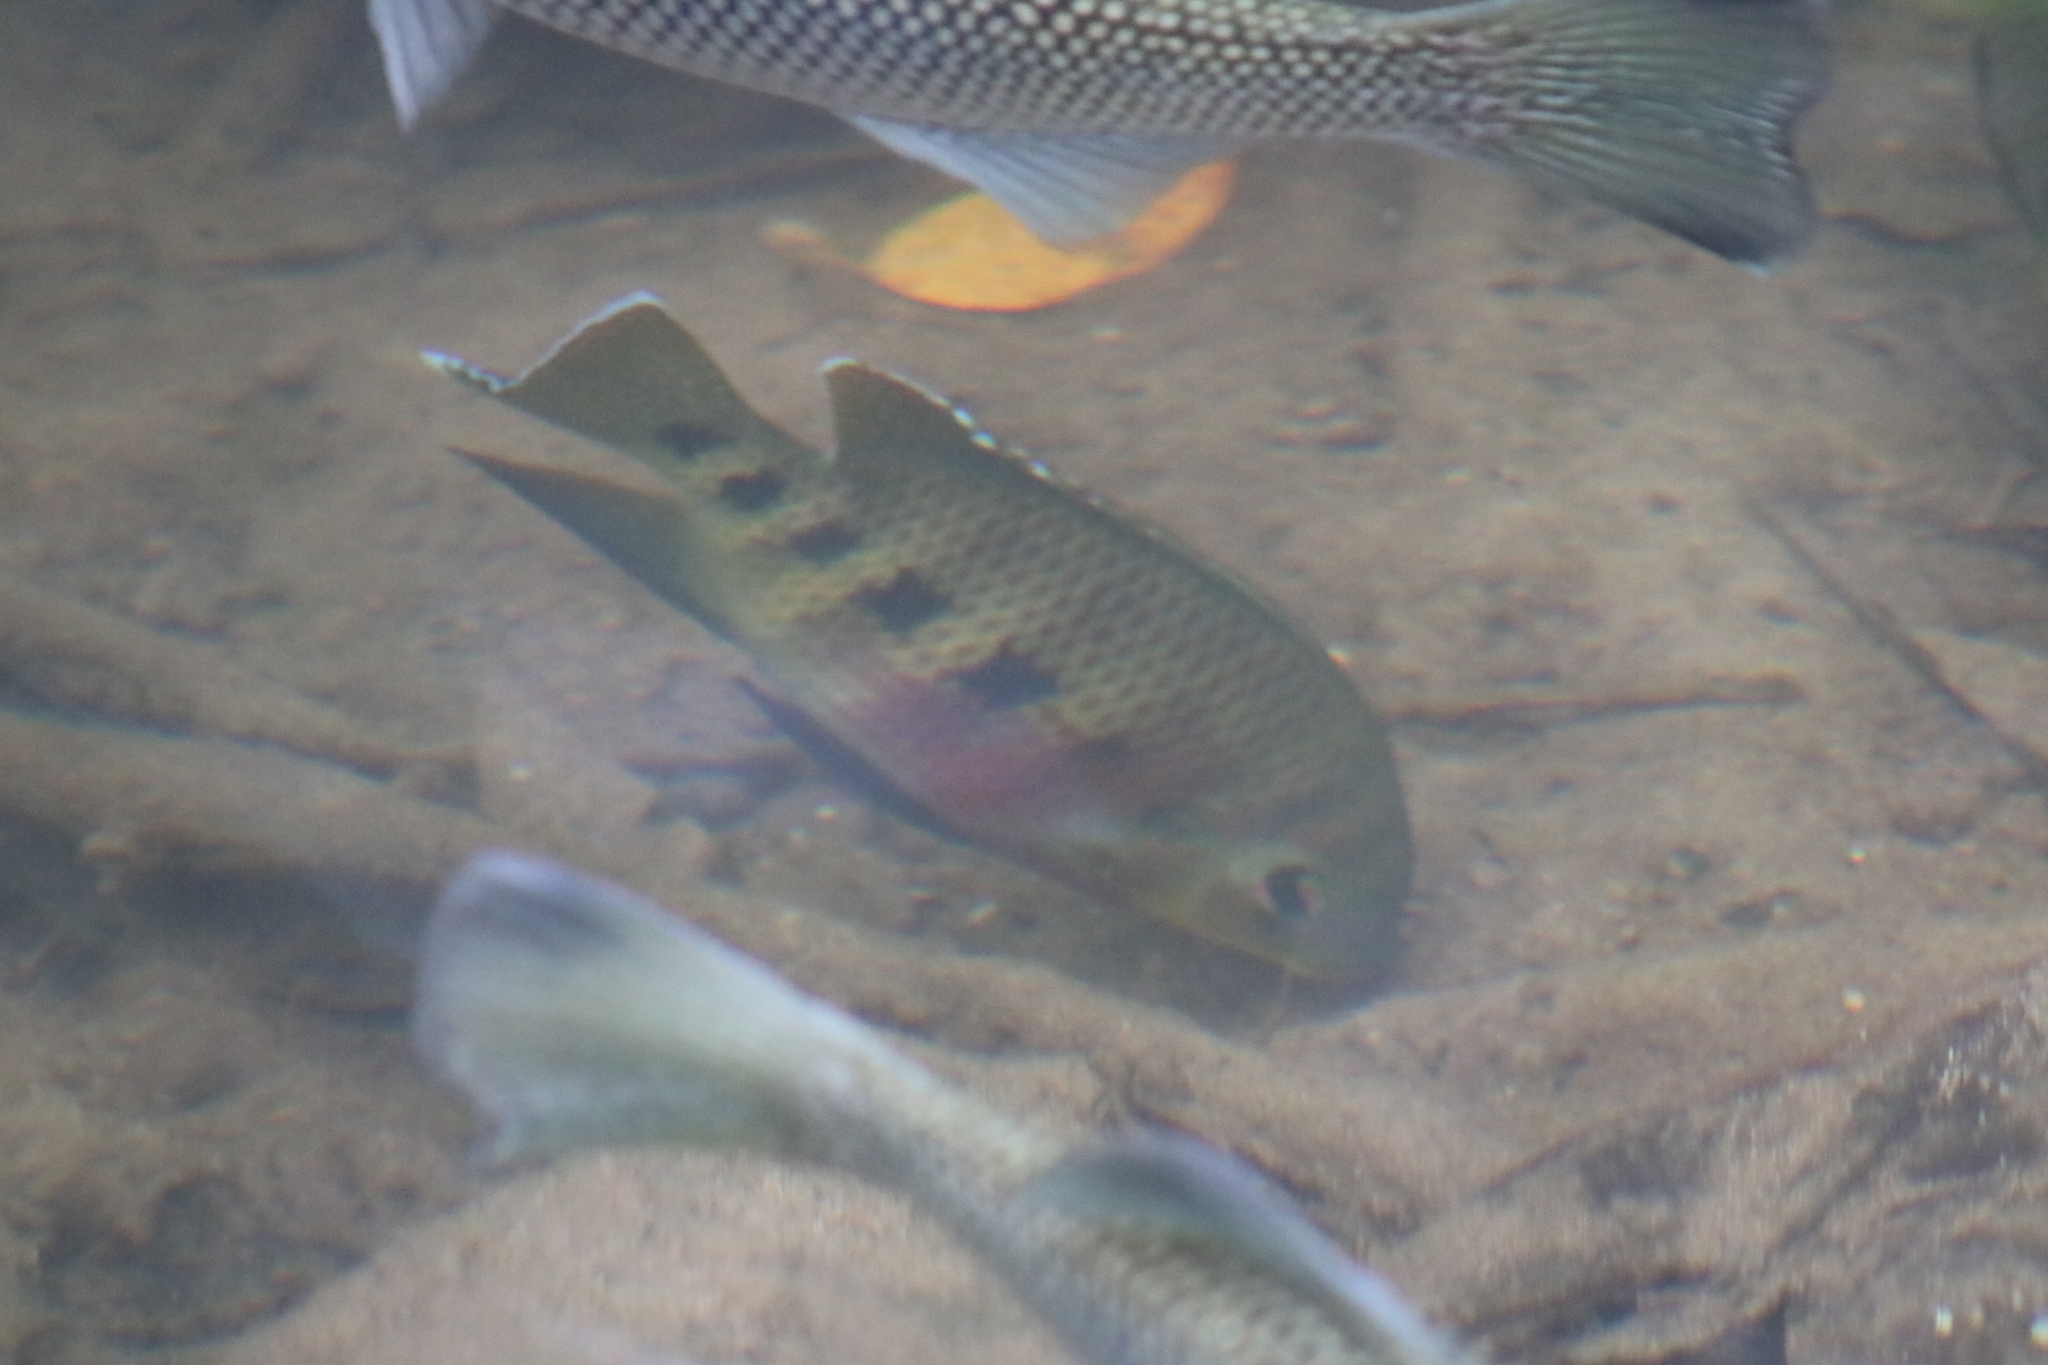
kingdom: Animalia
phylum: Chordata
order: Perciformes
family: Cichlidae
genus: Pelmatolapia
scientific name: Pelmatolapia mariae
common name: Spotted tilapia
